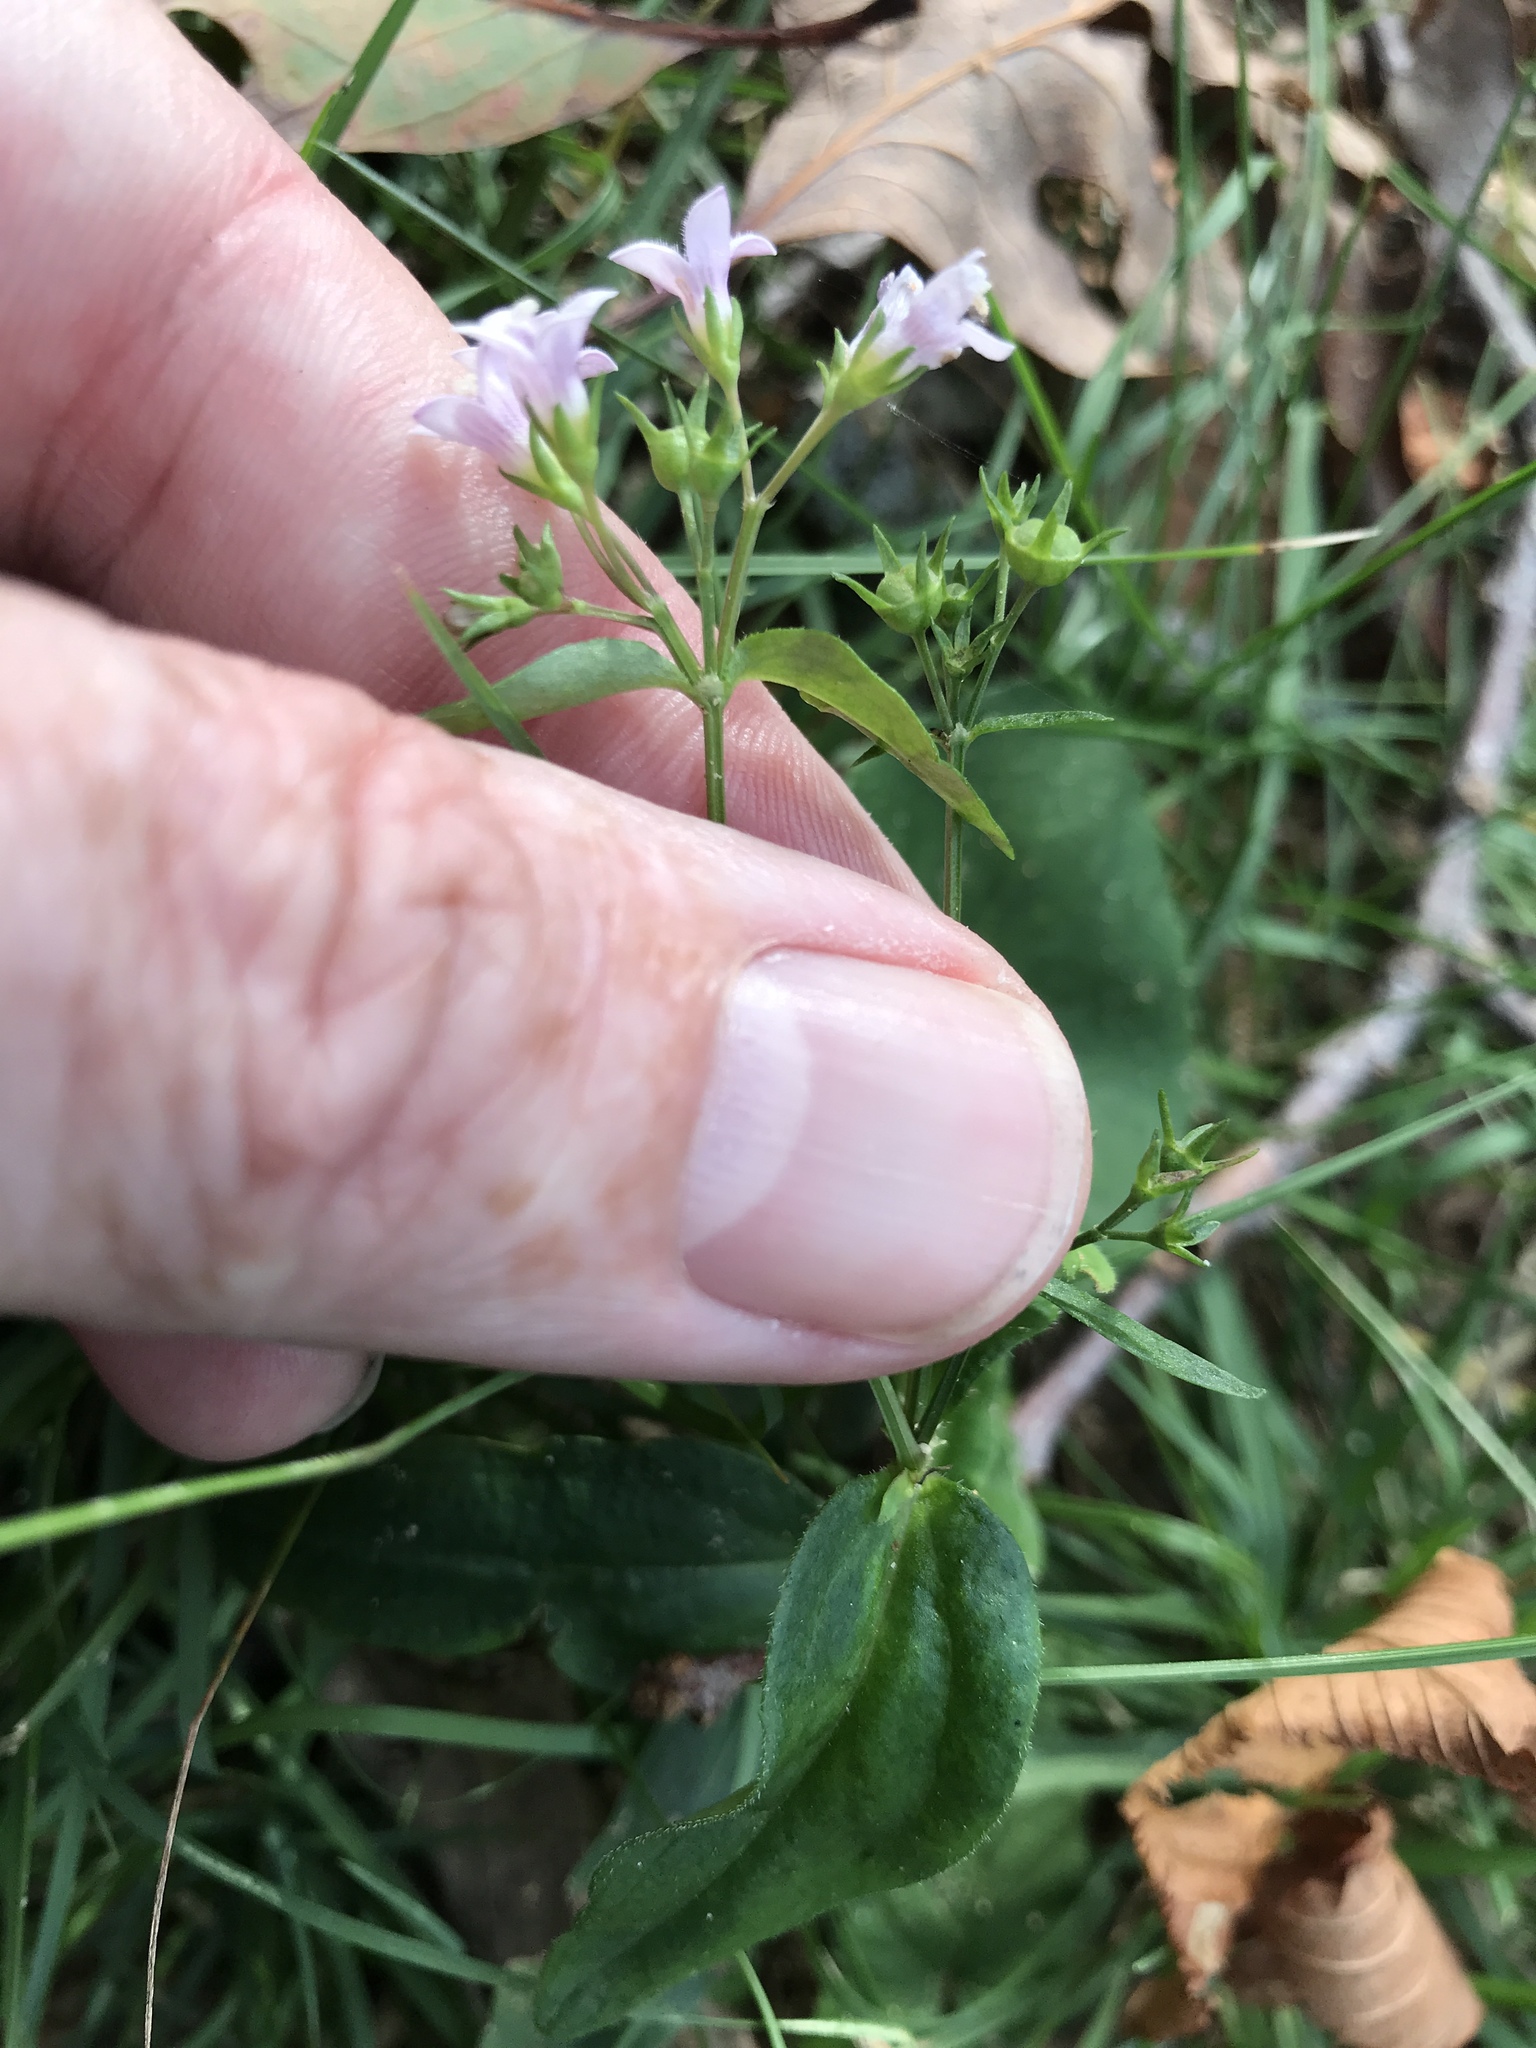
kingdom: Plantae
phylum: Tracheophyta
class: Magnoliopsida
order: Gentianales
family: Rubiaceae
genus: Houstonia
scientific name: Houstonia purpurea
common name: Summer bluet
